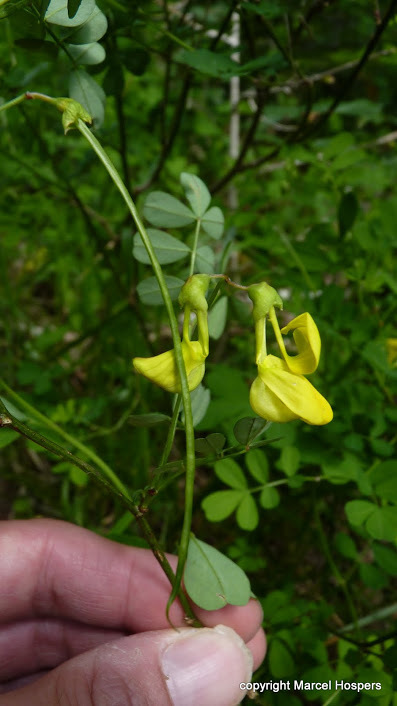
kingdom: Plantae
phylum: Tracheophyta
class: Magnoliopsida
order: Fabales
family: Fabaceae
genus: Hippocrepis
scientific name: Hippocrepis emerus
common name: Scorpion senna
